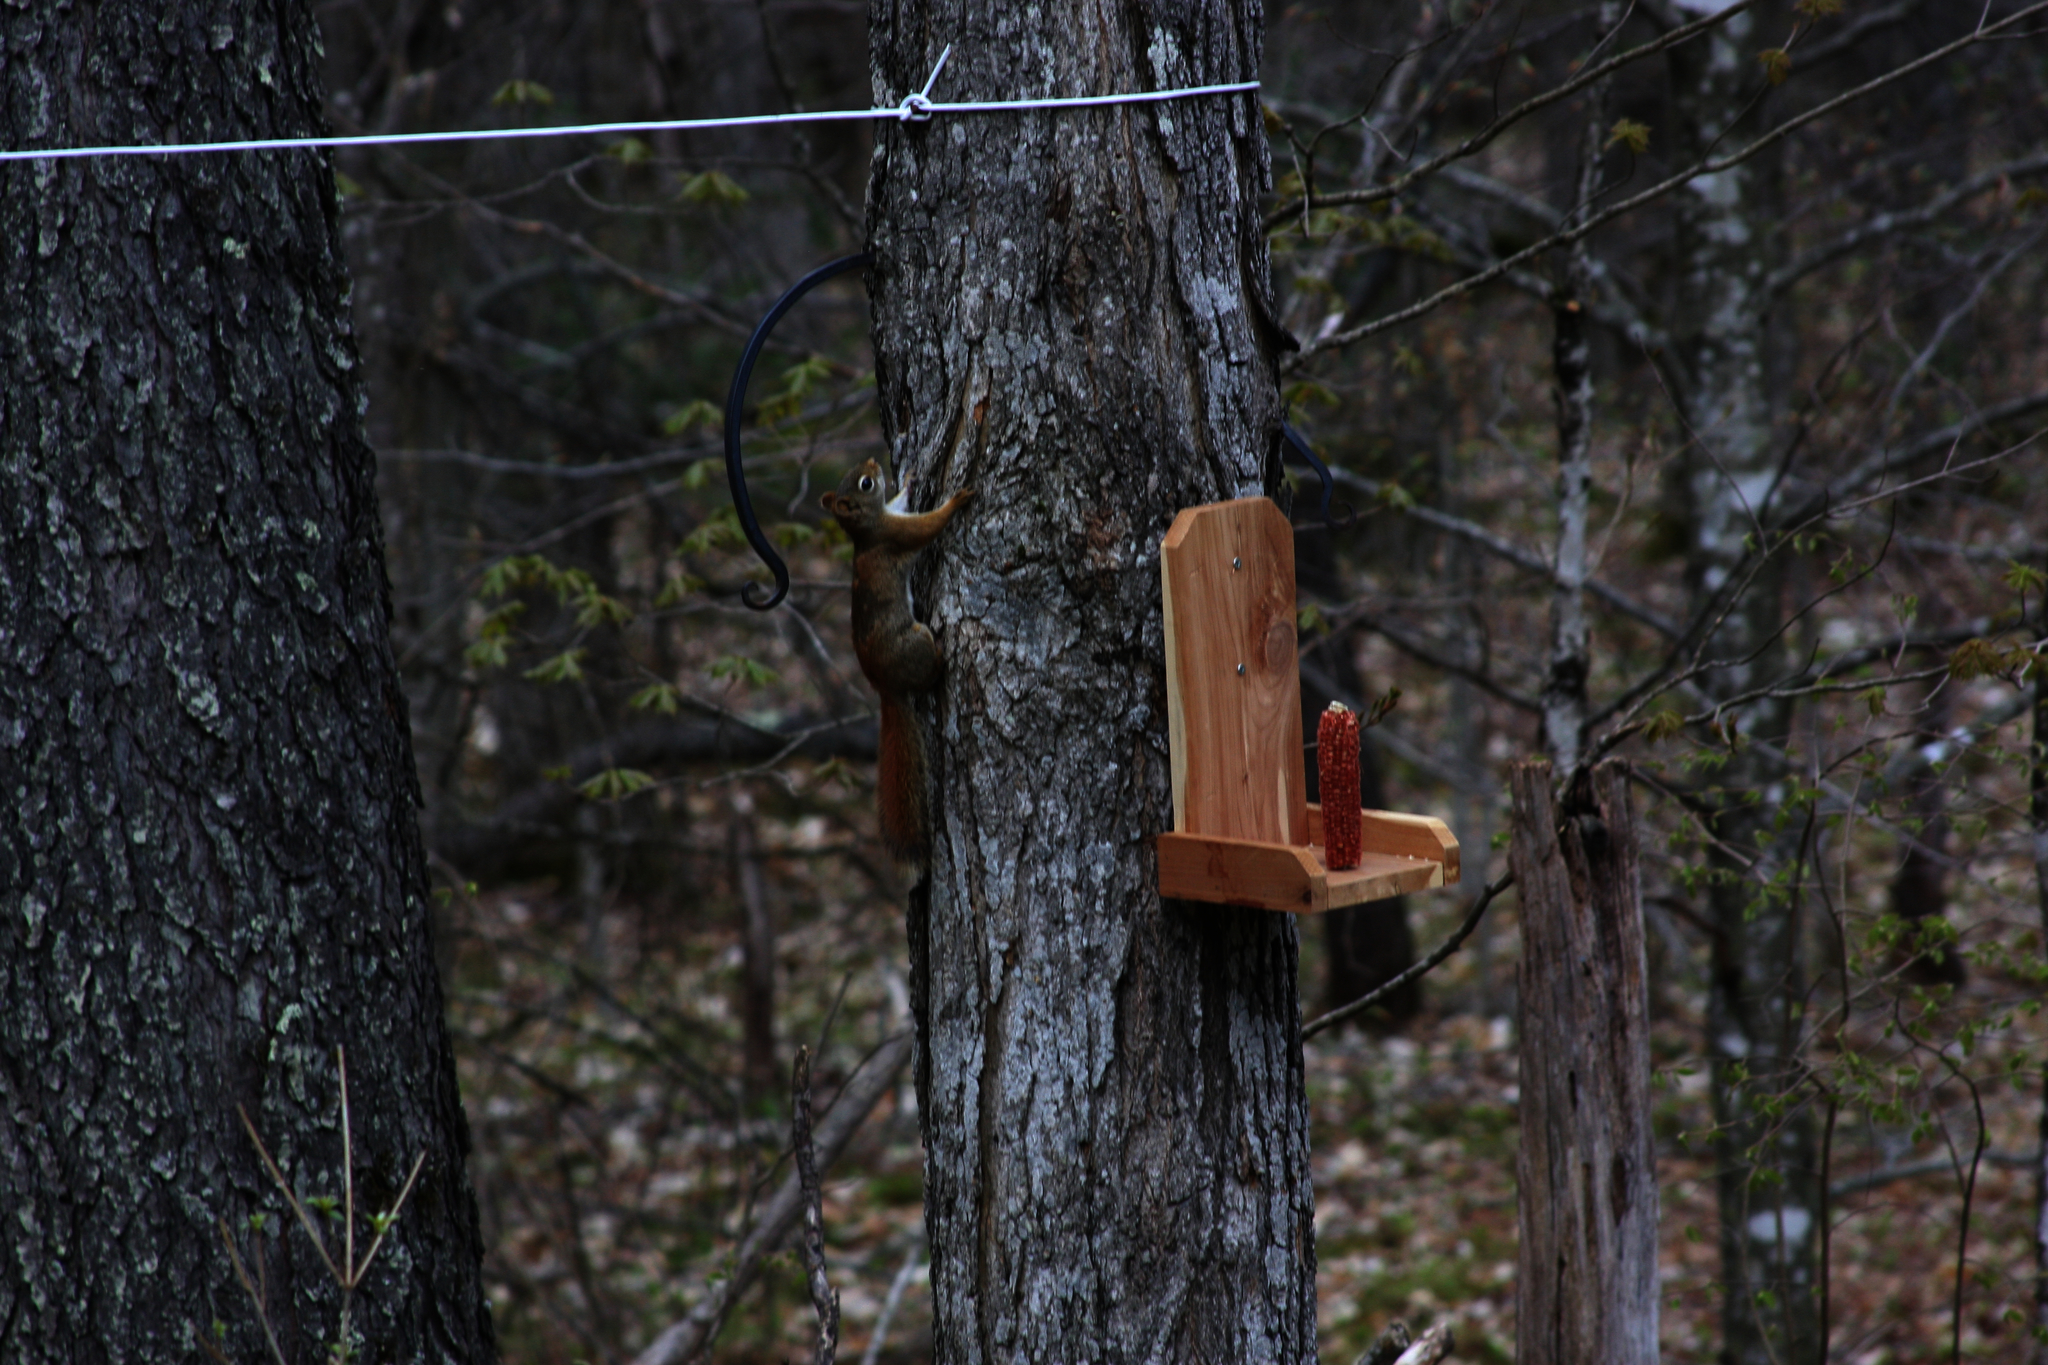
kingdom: Animalia
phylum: Chordata
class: Mammalia
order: Rodentia
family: Sciuridae
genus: Tamiasciurus
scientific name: Tamiasciurus hudsonicus
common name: Red squirrel
